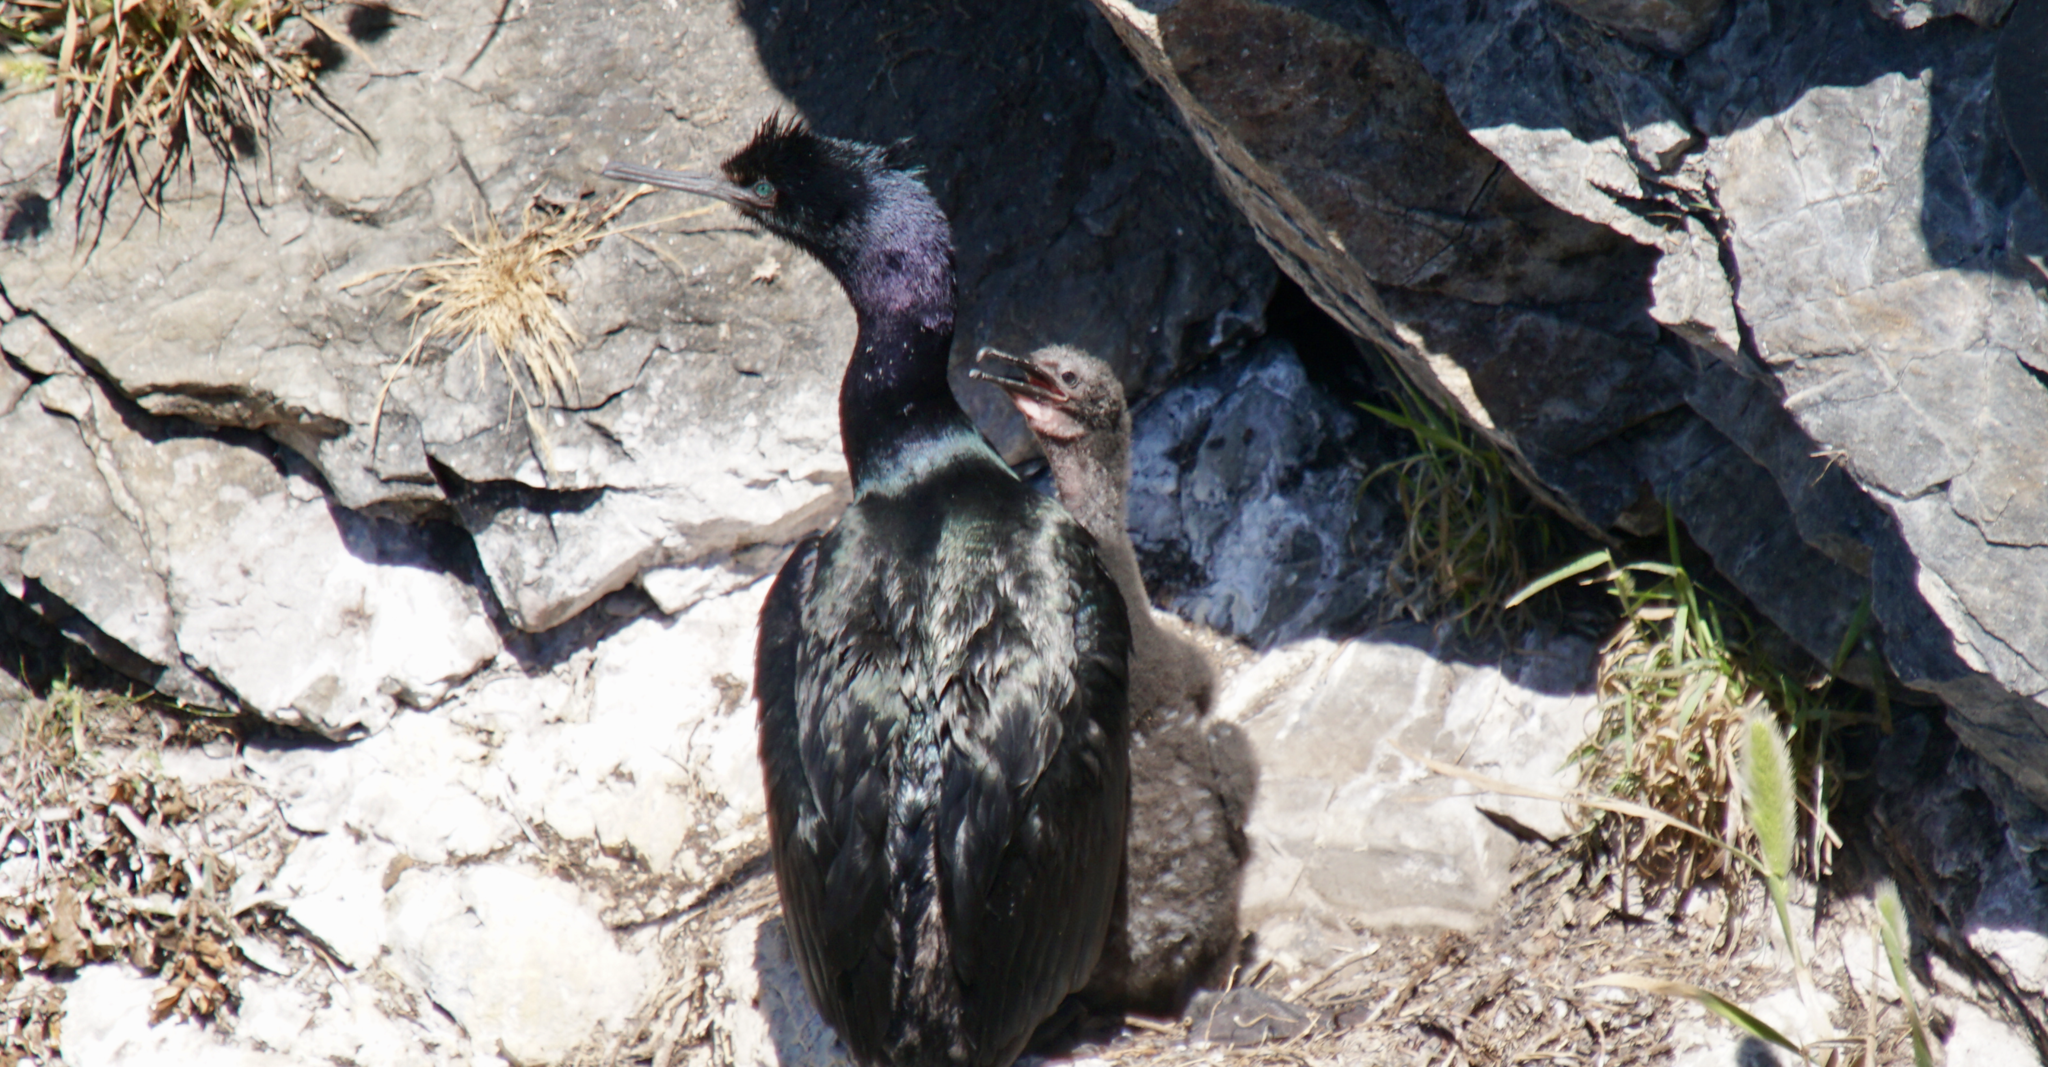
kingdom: Animalia
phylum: Chordata
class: Aves
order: Suliformes
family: Phalacrocoracidae
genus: Phalacrocorax
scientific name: Phalacrocorax pelagicus
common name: Pelagic cormorant
